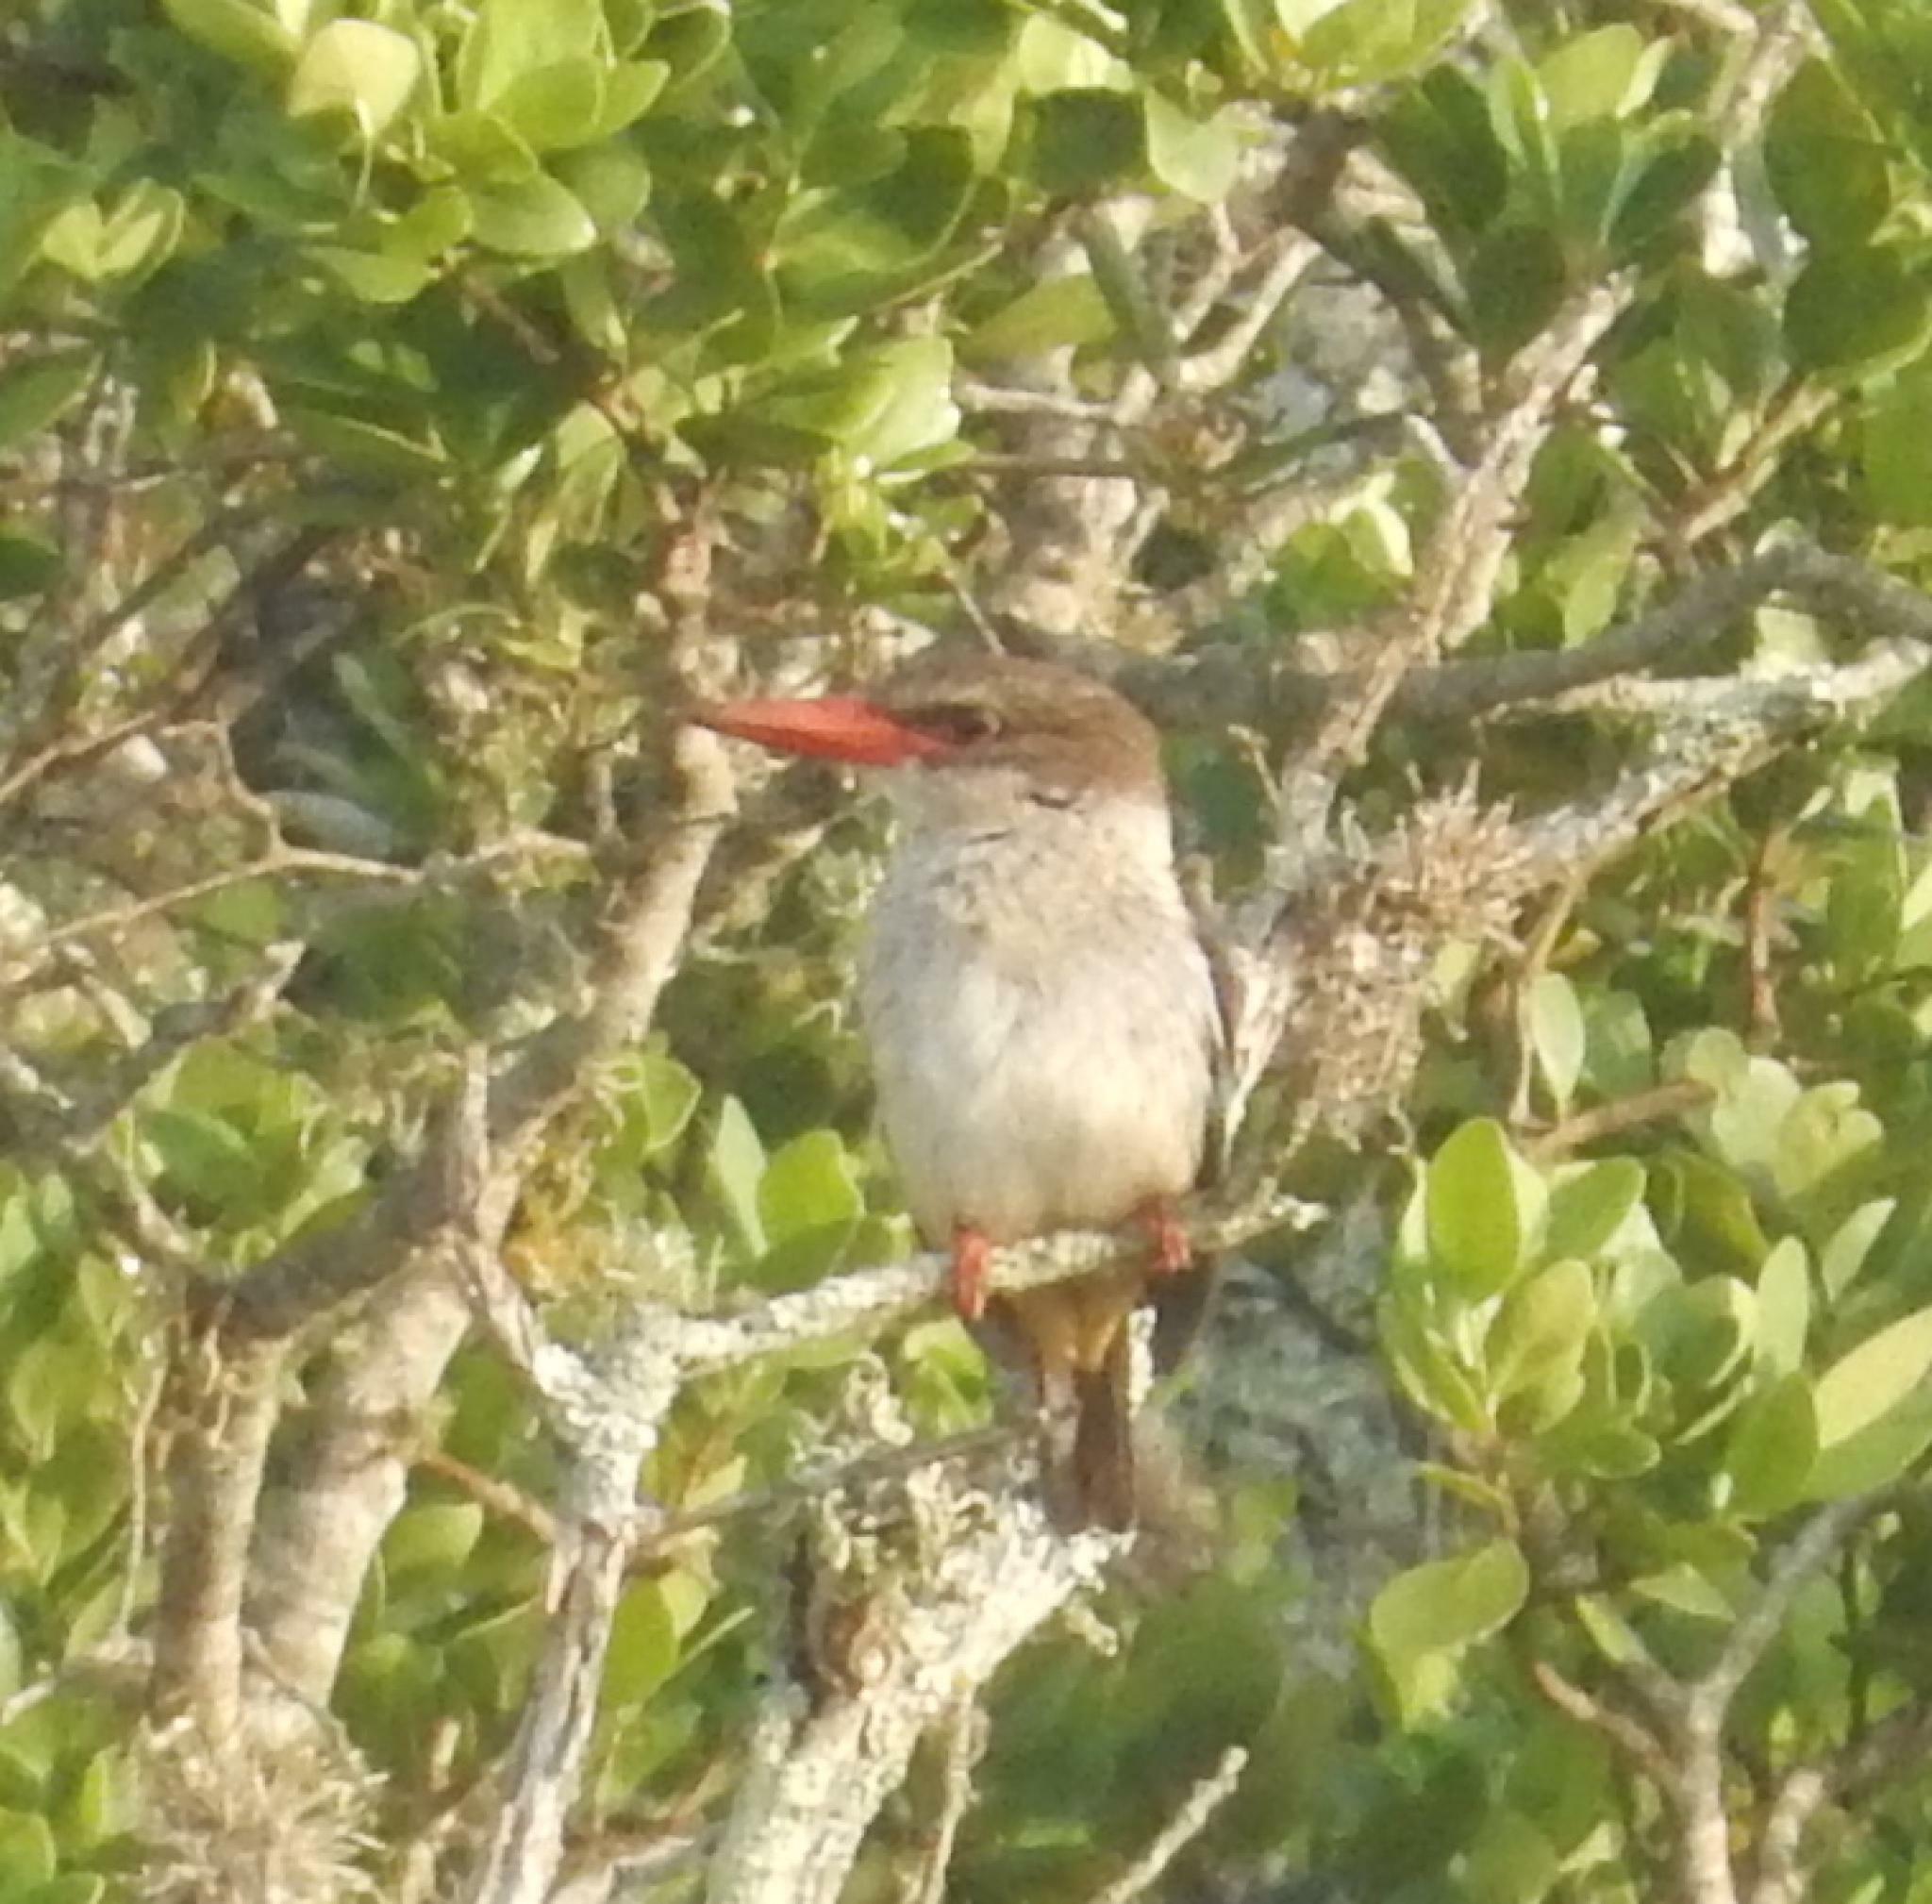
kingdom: Animalia
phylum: Chordata
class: Aves
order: Coraciiformes
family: Alcedinidae
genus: Halcyon
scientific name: Halcyon albiventris
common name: Brown-hooded kingfisher
